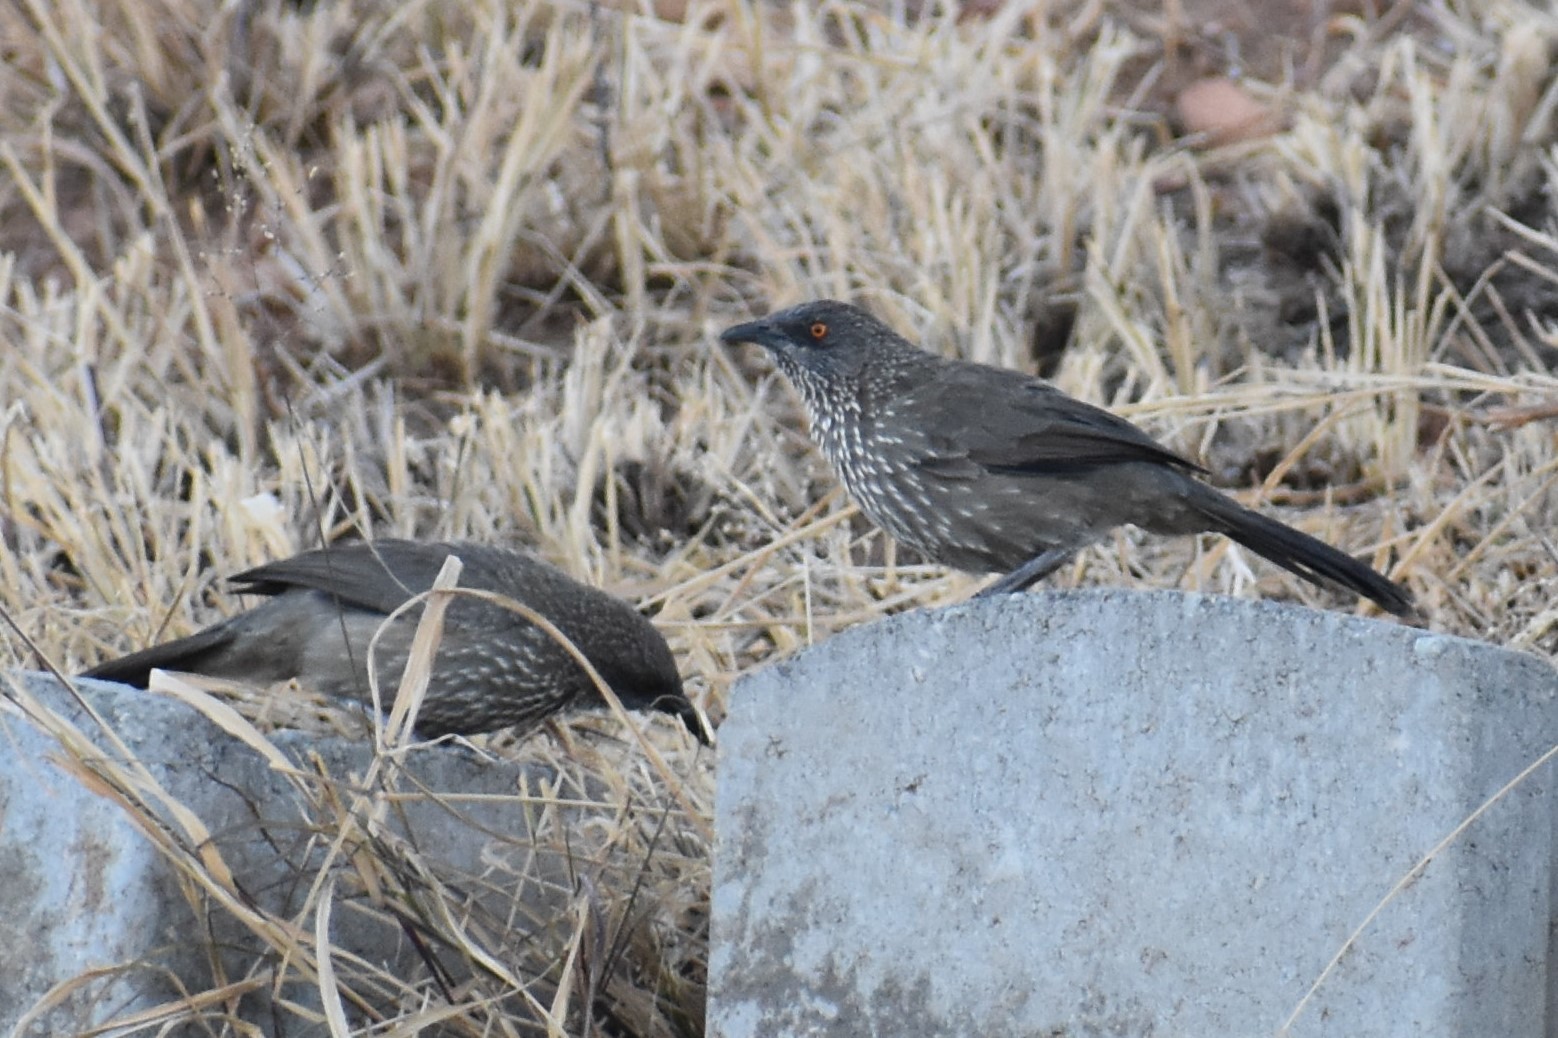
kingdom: Animalia
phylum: Chordata
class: Aves
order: Passeriformes
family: Leiothrichidae
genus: Turdoides
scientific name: Turdoides jardineii
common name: Arrow-marked babbler
